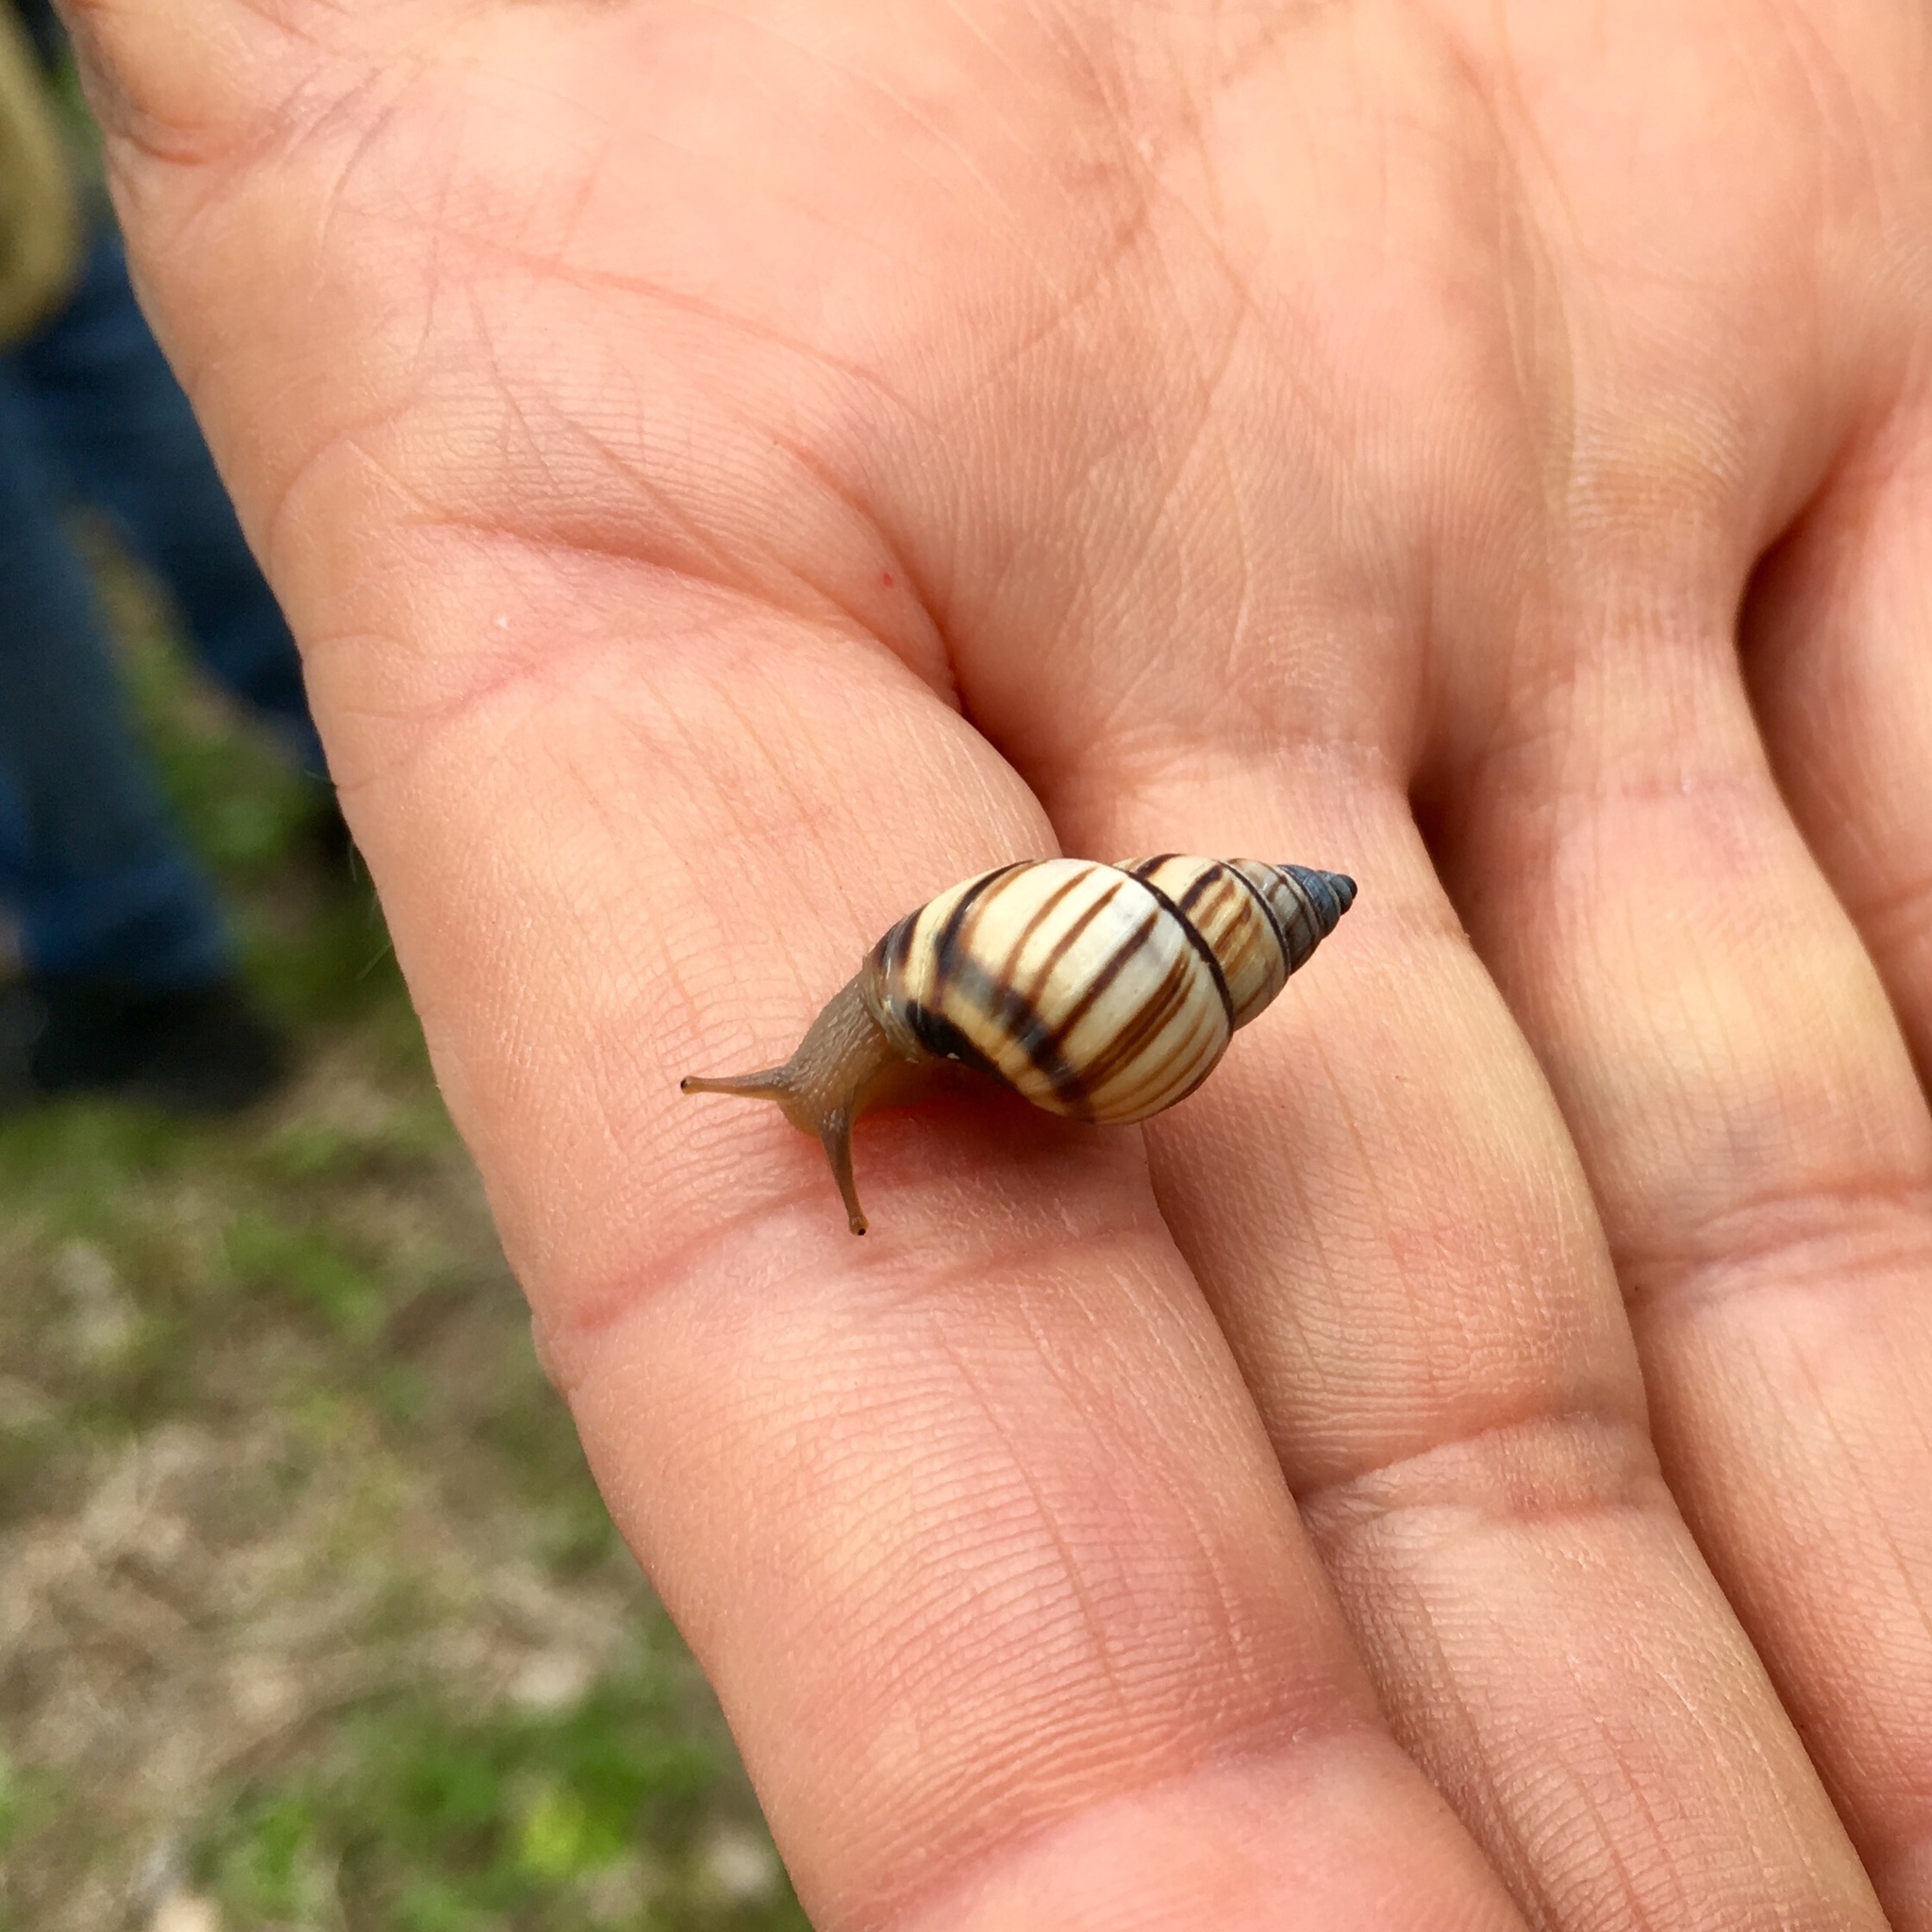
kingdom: Animalia
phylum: Mollusca
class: Gastropoda
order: Stylommatophora
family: Bulimulidae
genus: Drymaeus
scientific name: Drymaeus
